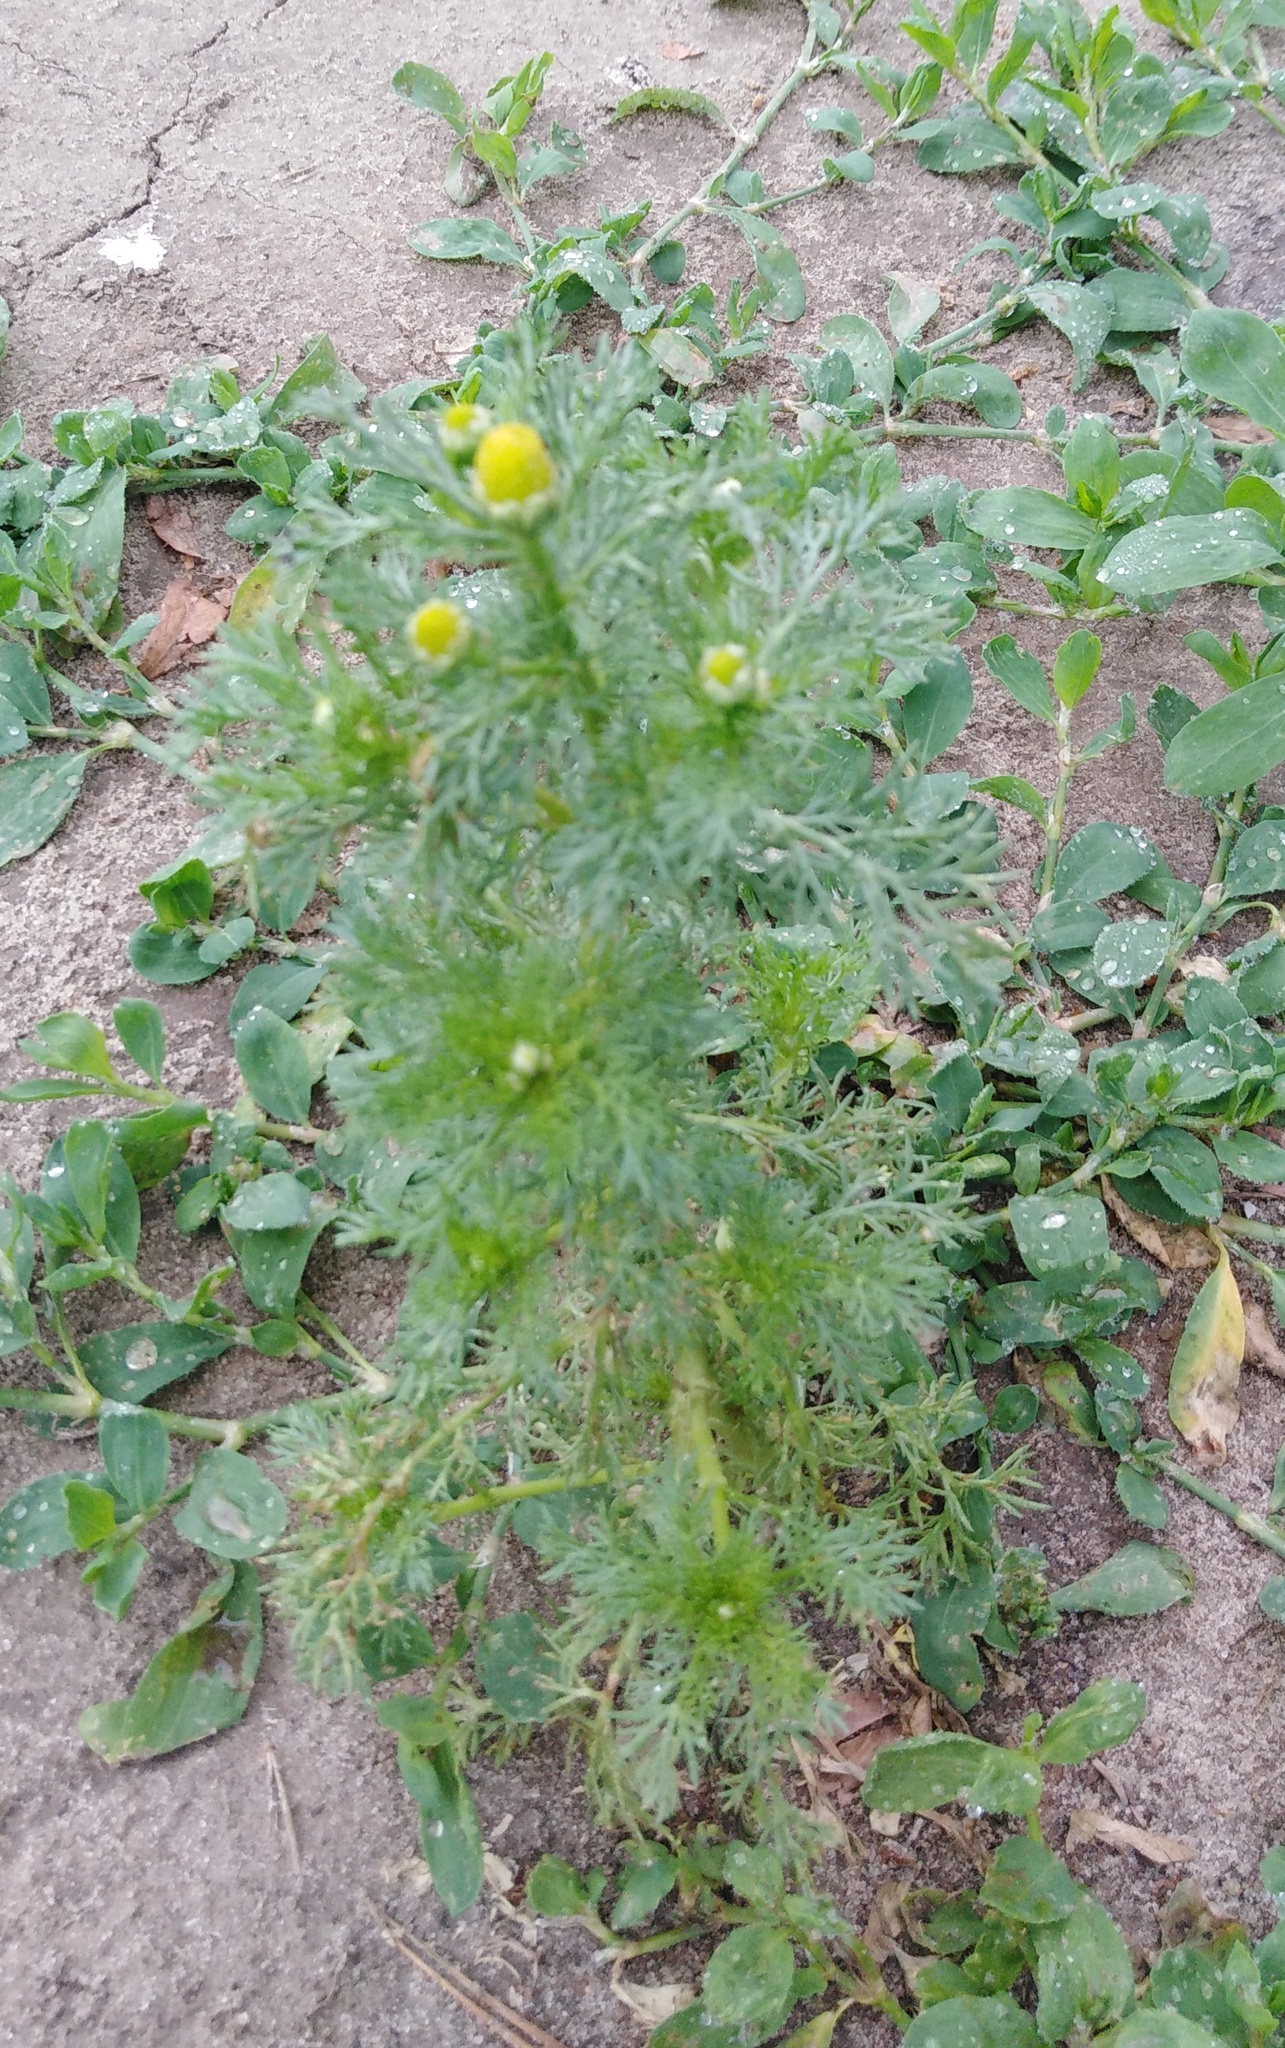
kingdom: Plantae
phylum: Tracheophyta
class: Magnoliopsida
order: Asterales
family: Asteraceae
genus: Matricaria
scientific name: Matricaria discoidea
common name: Disc mayweed
